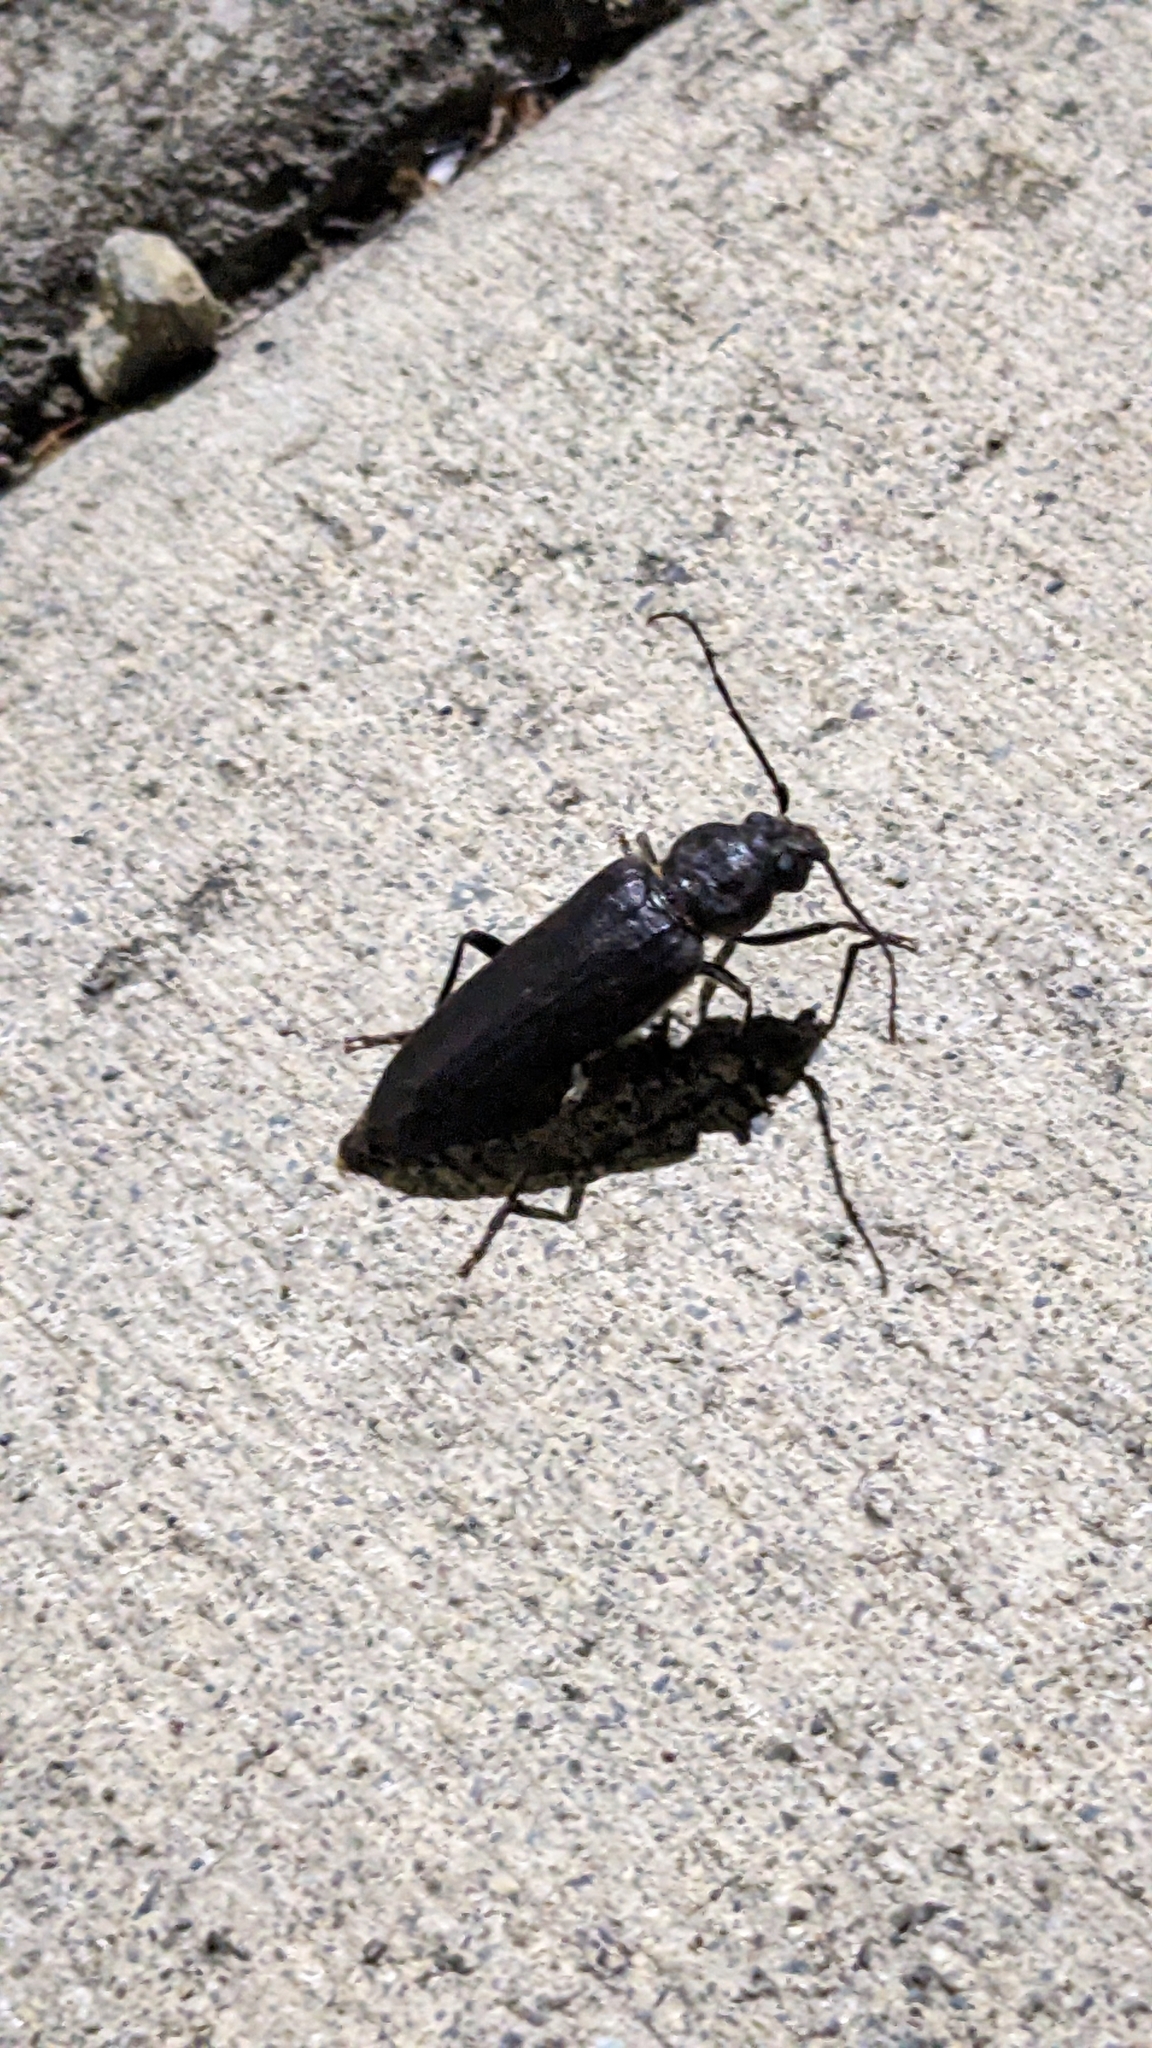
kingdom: Animalia
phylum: Arthropoda
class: Insecta
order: Coleoptera
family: Cerambycidae
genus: Arhopalus
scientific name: Arhopalus ferus
